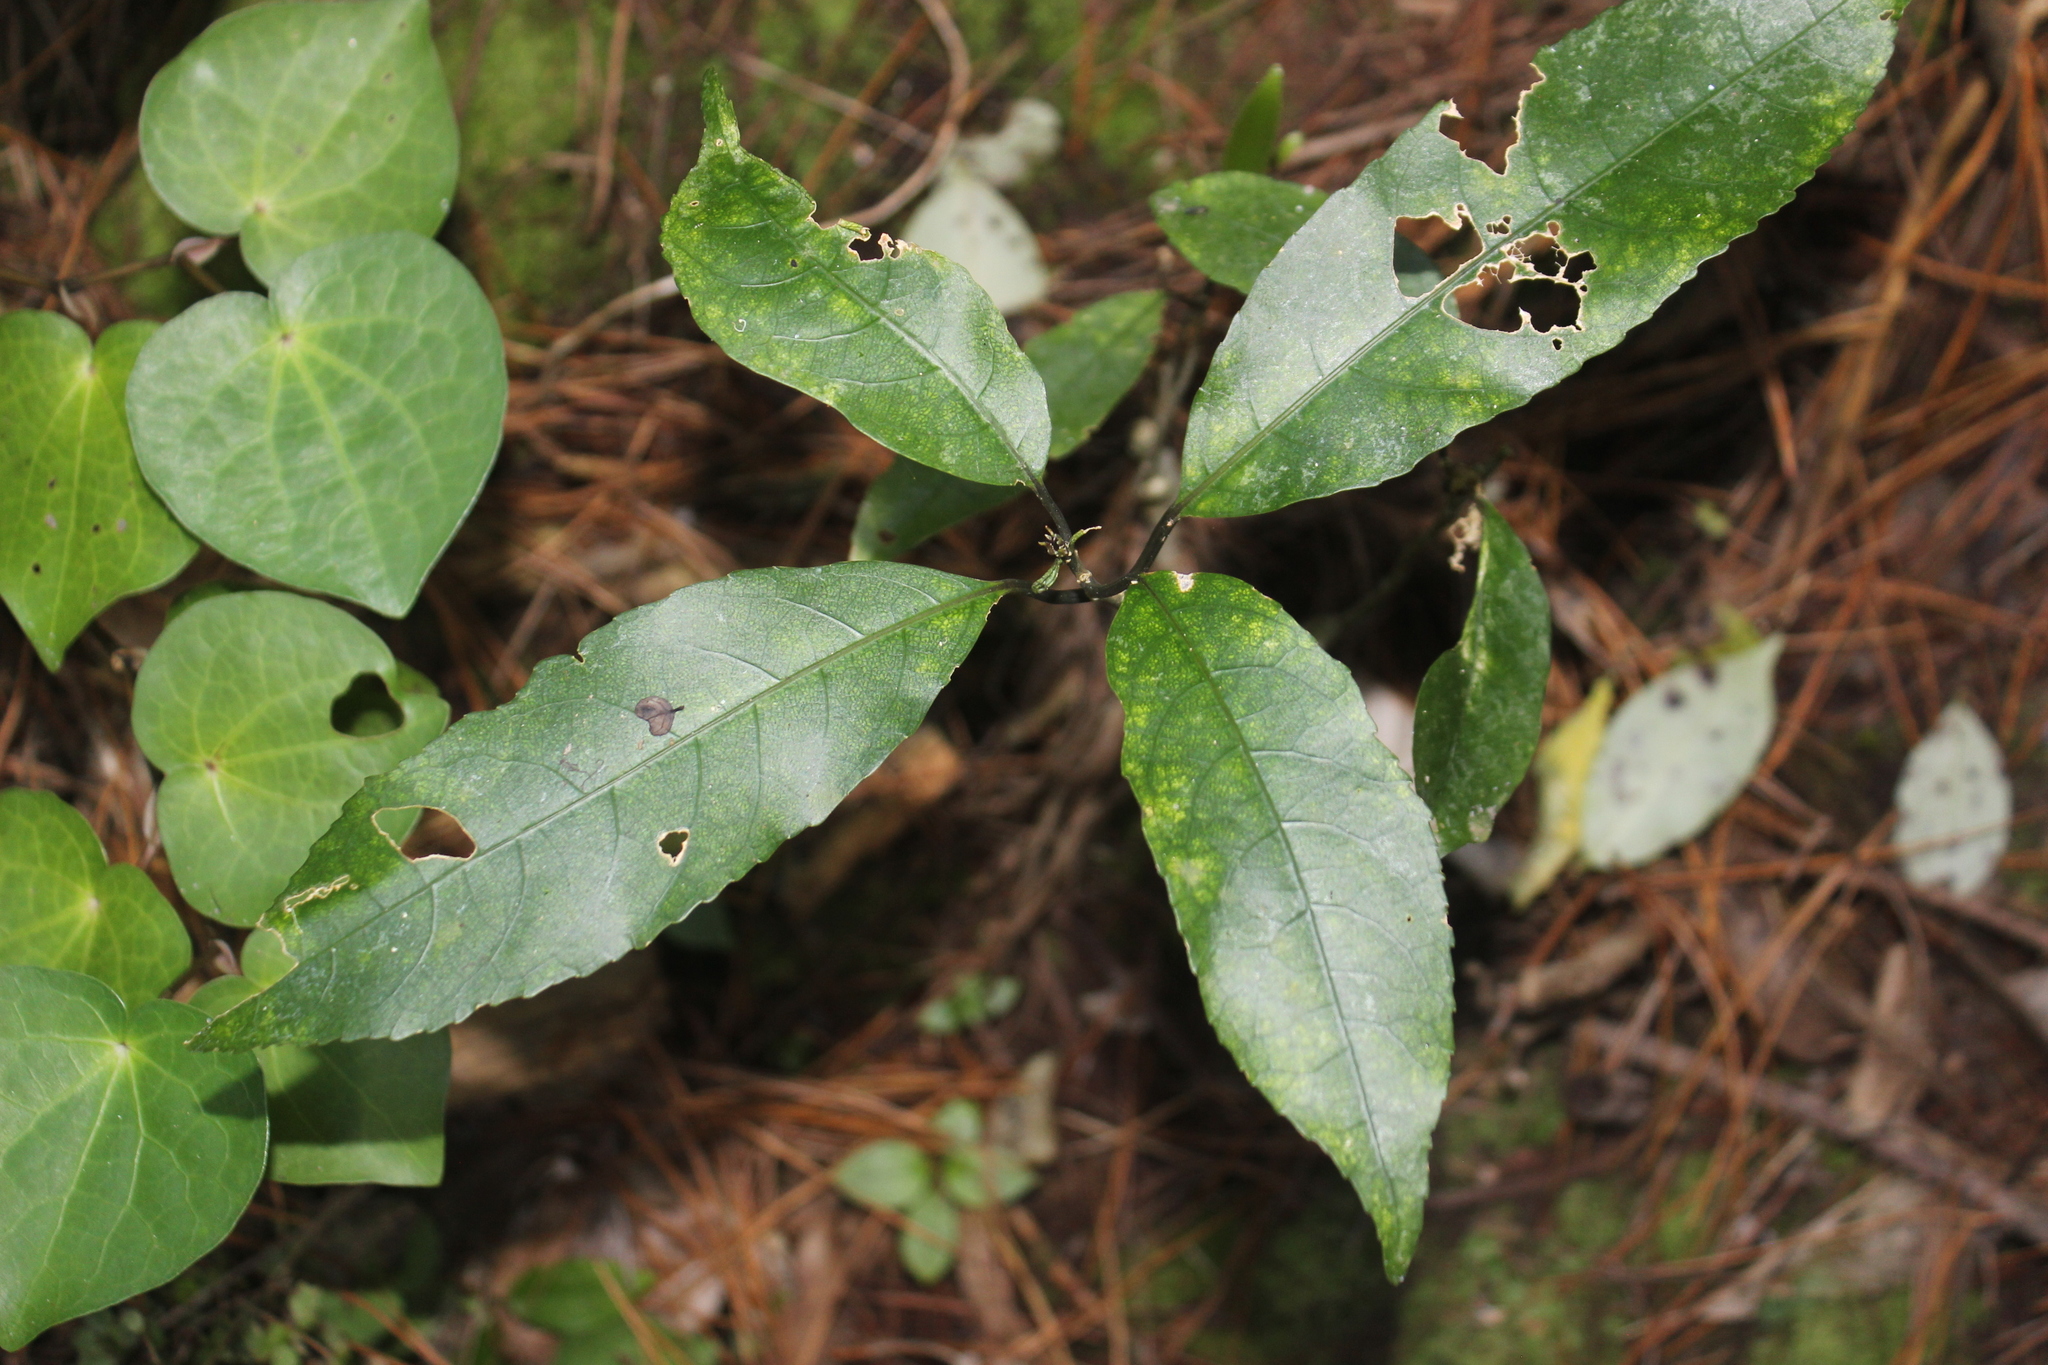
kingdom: Plantae
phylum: Tracheophyta
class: Magnoliopsida
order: Malpighiales
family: Violaceae
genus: Melicytus
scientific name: Melicytus ramiflorus
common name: Mahoe
